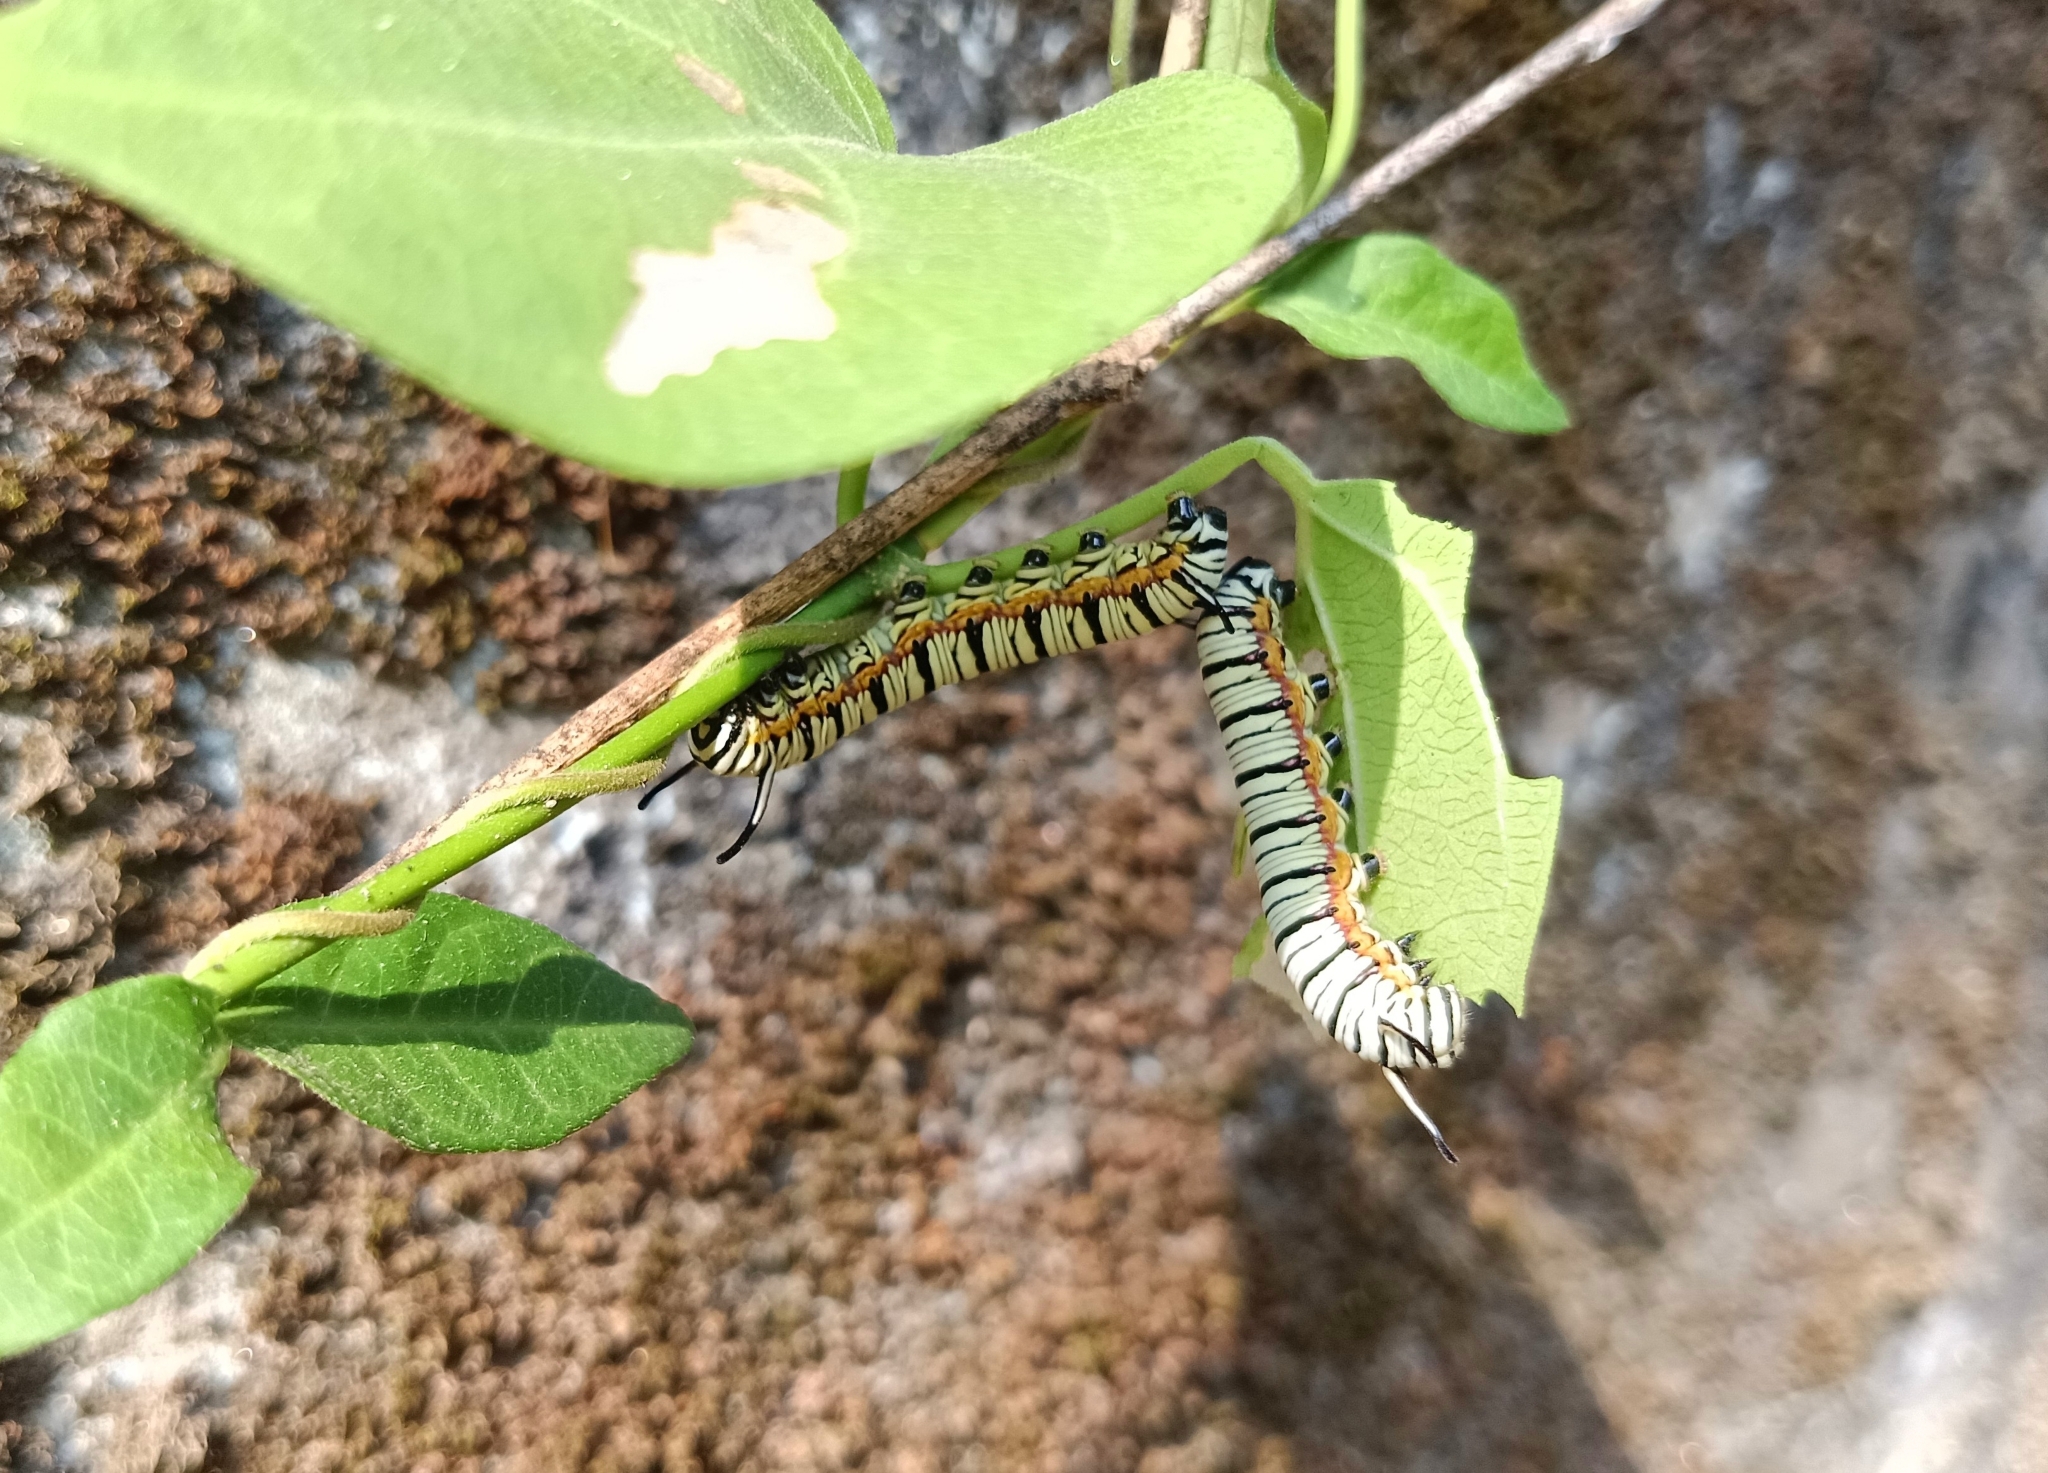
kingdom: Animalia
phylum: Arthropoda
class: Insecta
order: Lepidoptera
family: Nymphalidae
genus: Tirumala
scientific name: Tirumala limniace
